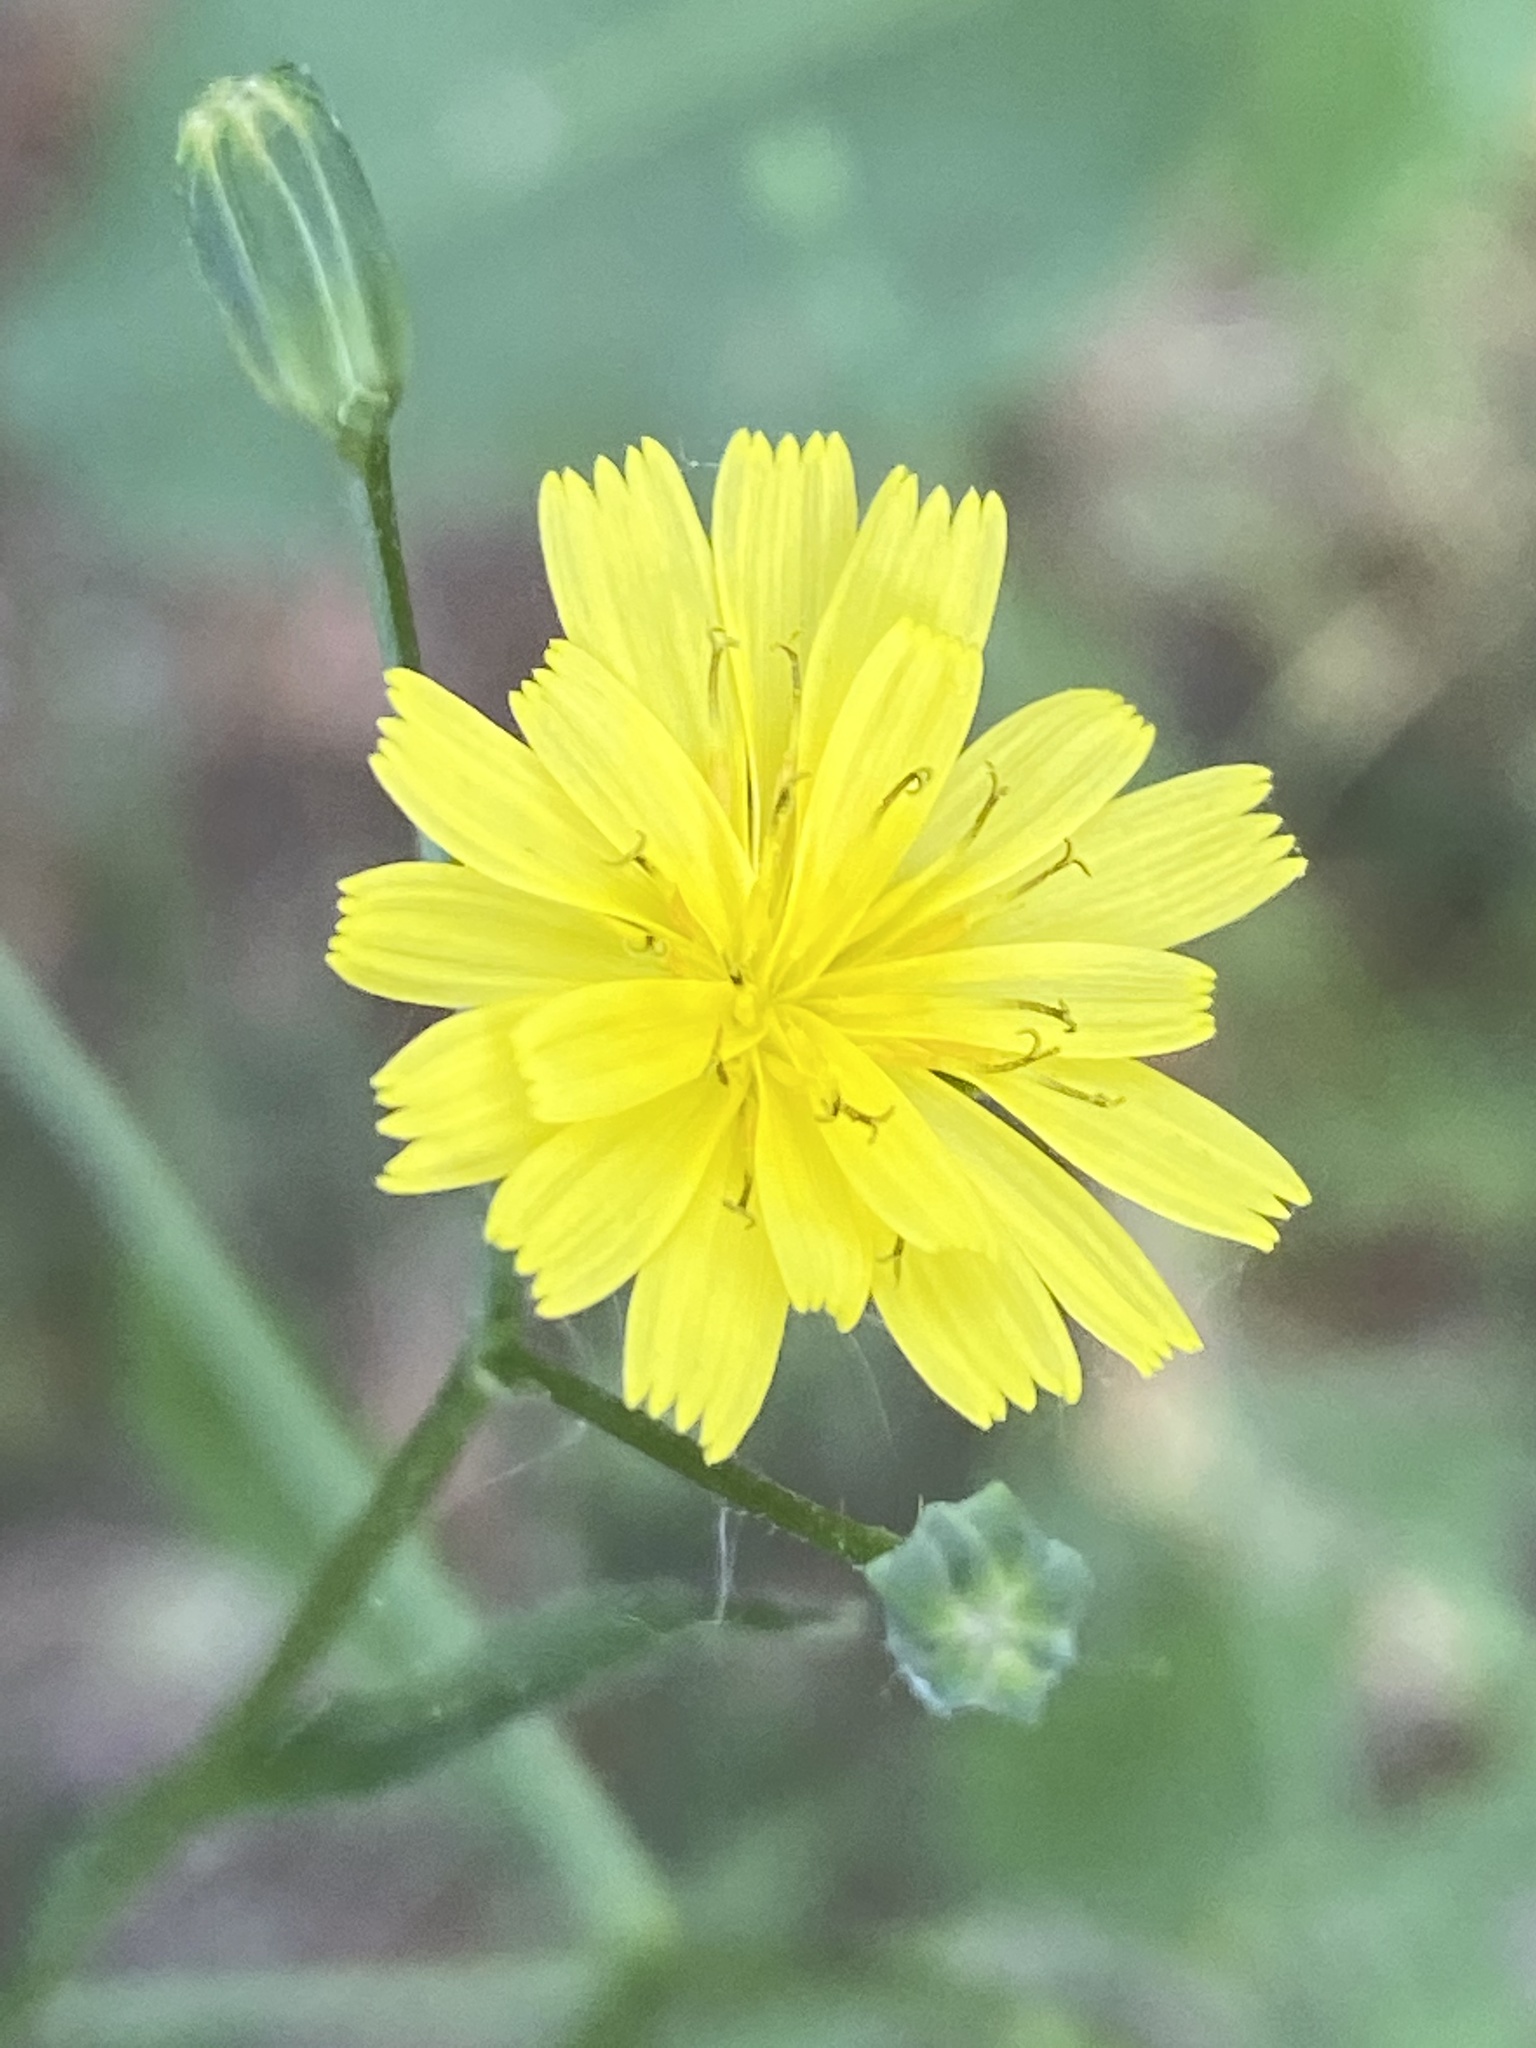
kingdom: Plantae
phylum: Tracheophyta
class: Magnoliopsida
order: Asterales
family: Asteraceae
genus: Lapsana
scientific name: Lapsana communis
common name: Nipplewort
